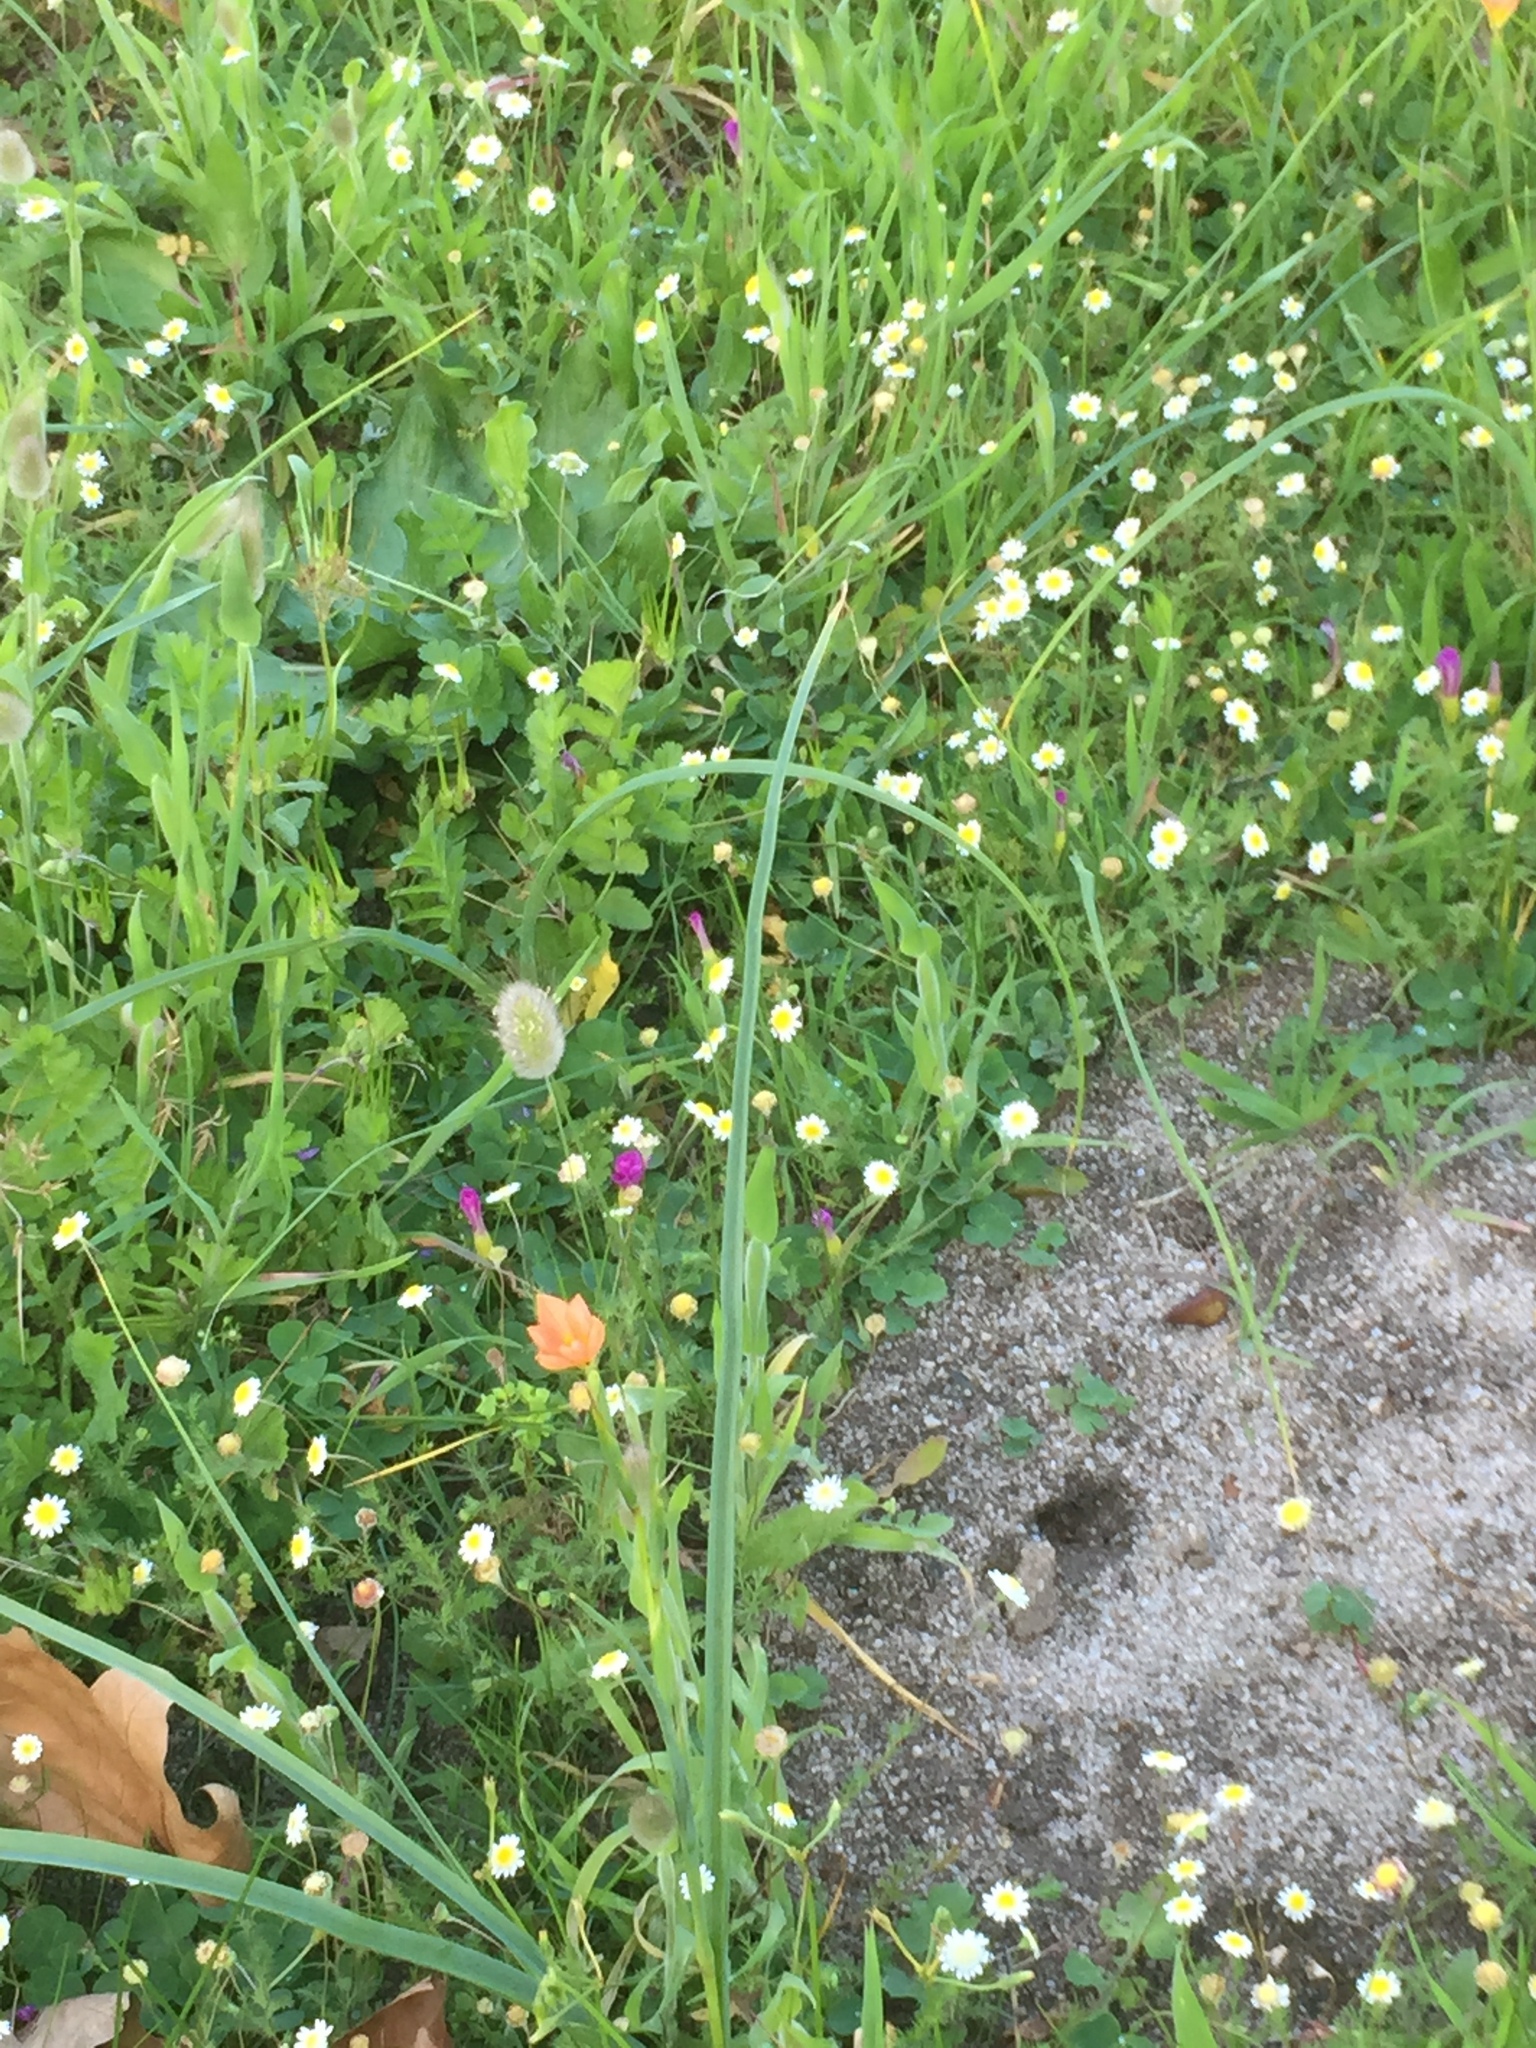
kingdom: Plantae
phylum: Tracheophyta
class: Magnoliopsida
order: Asterales
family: Asteraceae
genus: Cotula
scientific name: Cotula turbinata
